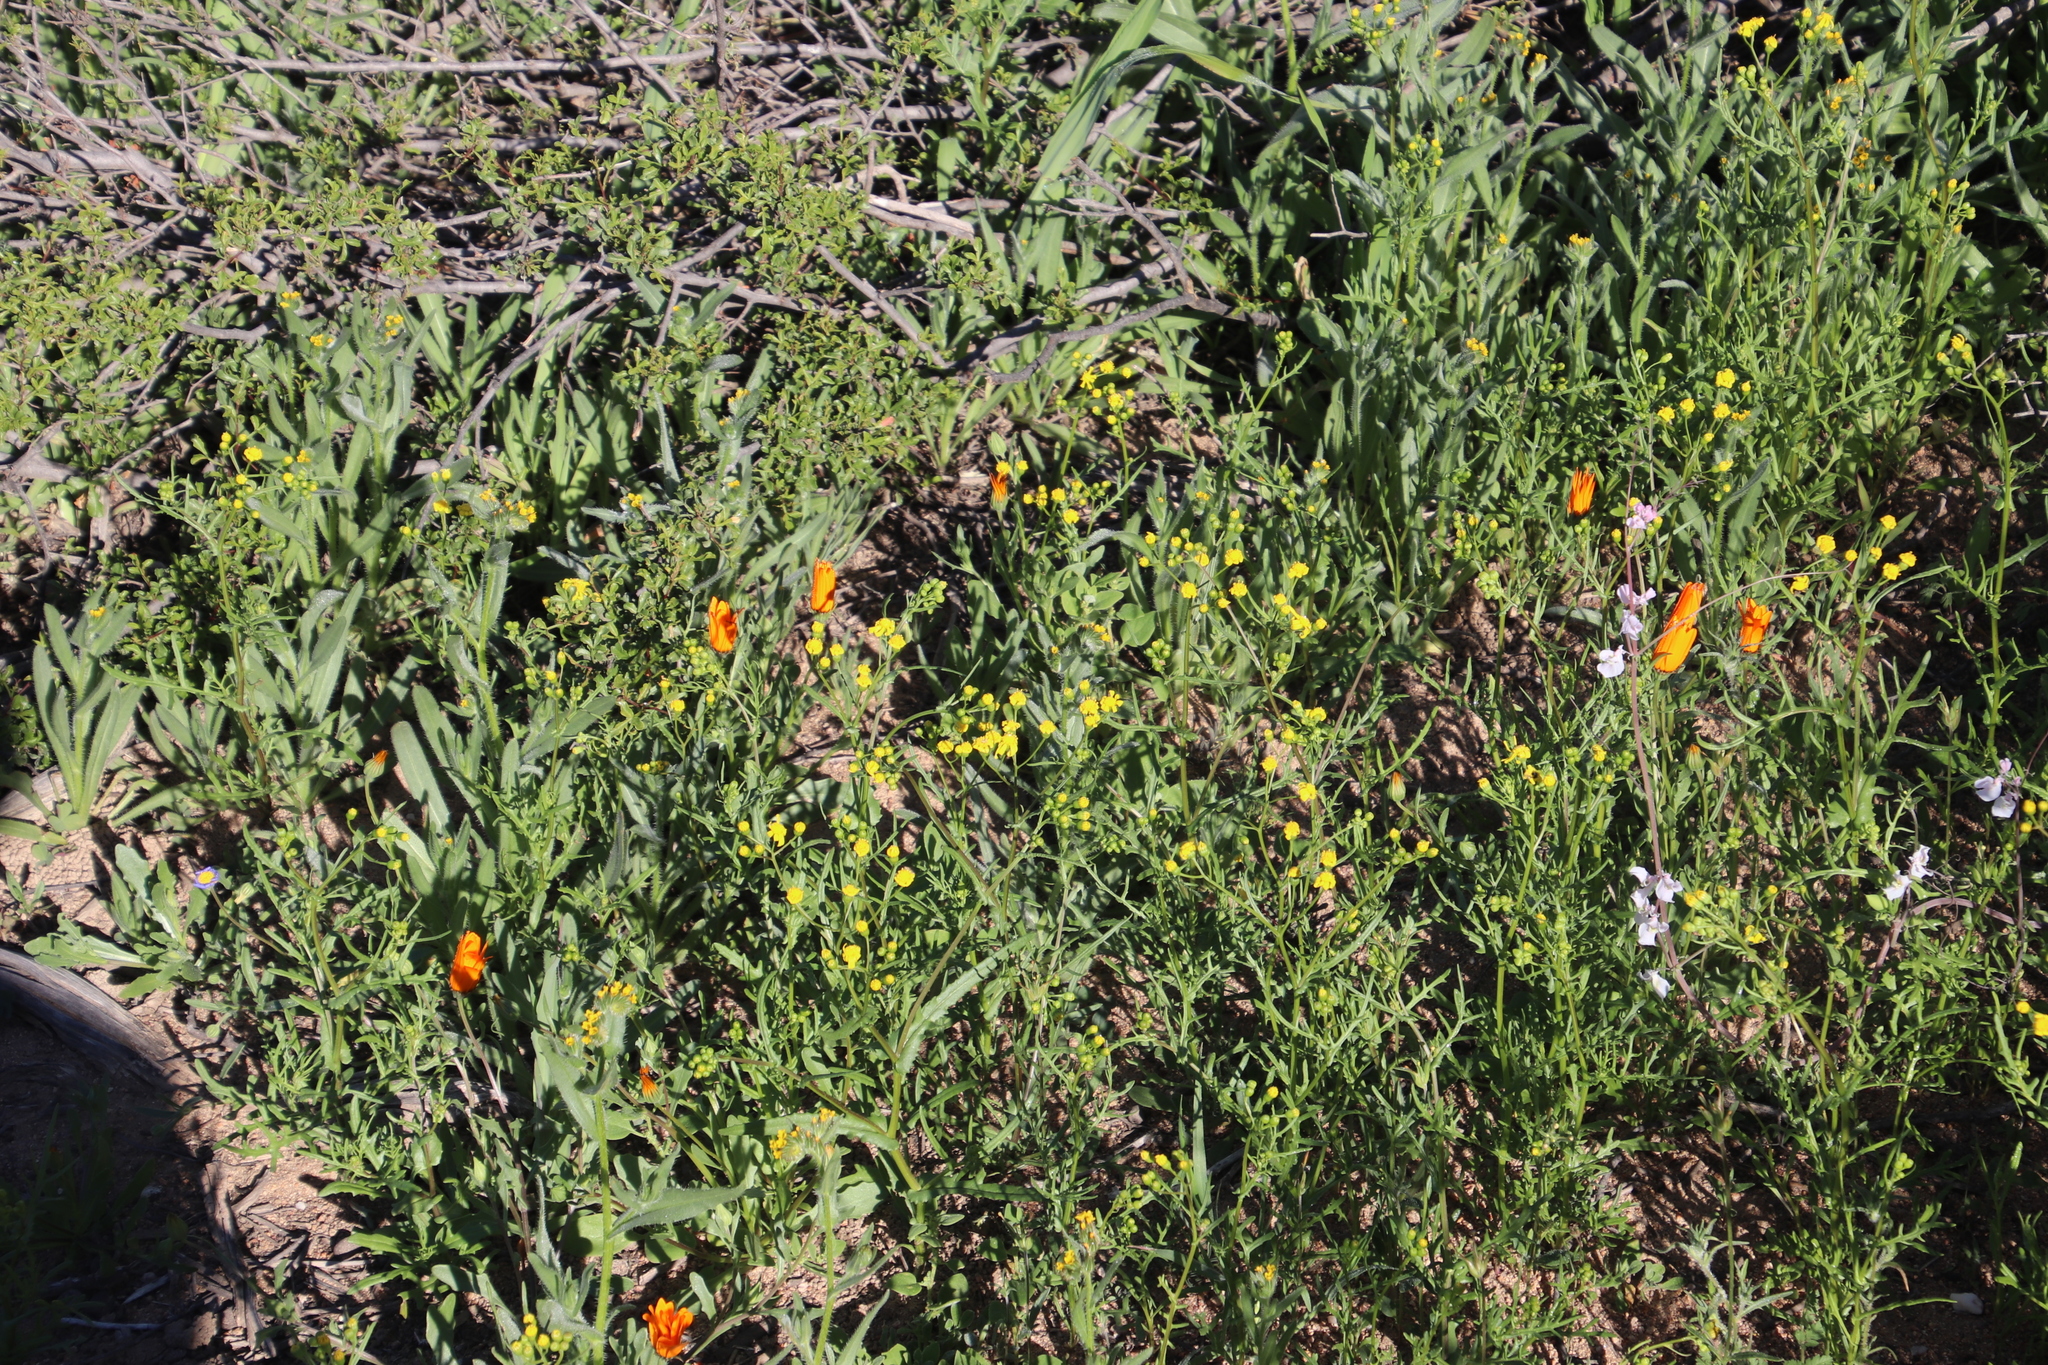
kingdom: Plantae
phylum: Tracheophyta
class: Magnoliopsida
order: Asterales
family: Asteraceae
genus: Senecio
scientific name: Senecio abruptus
